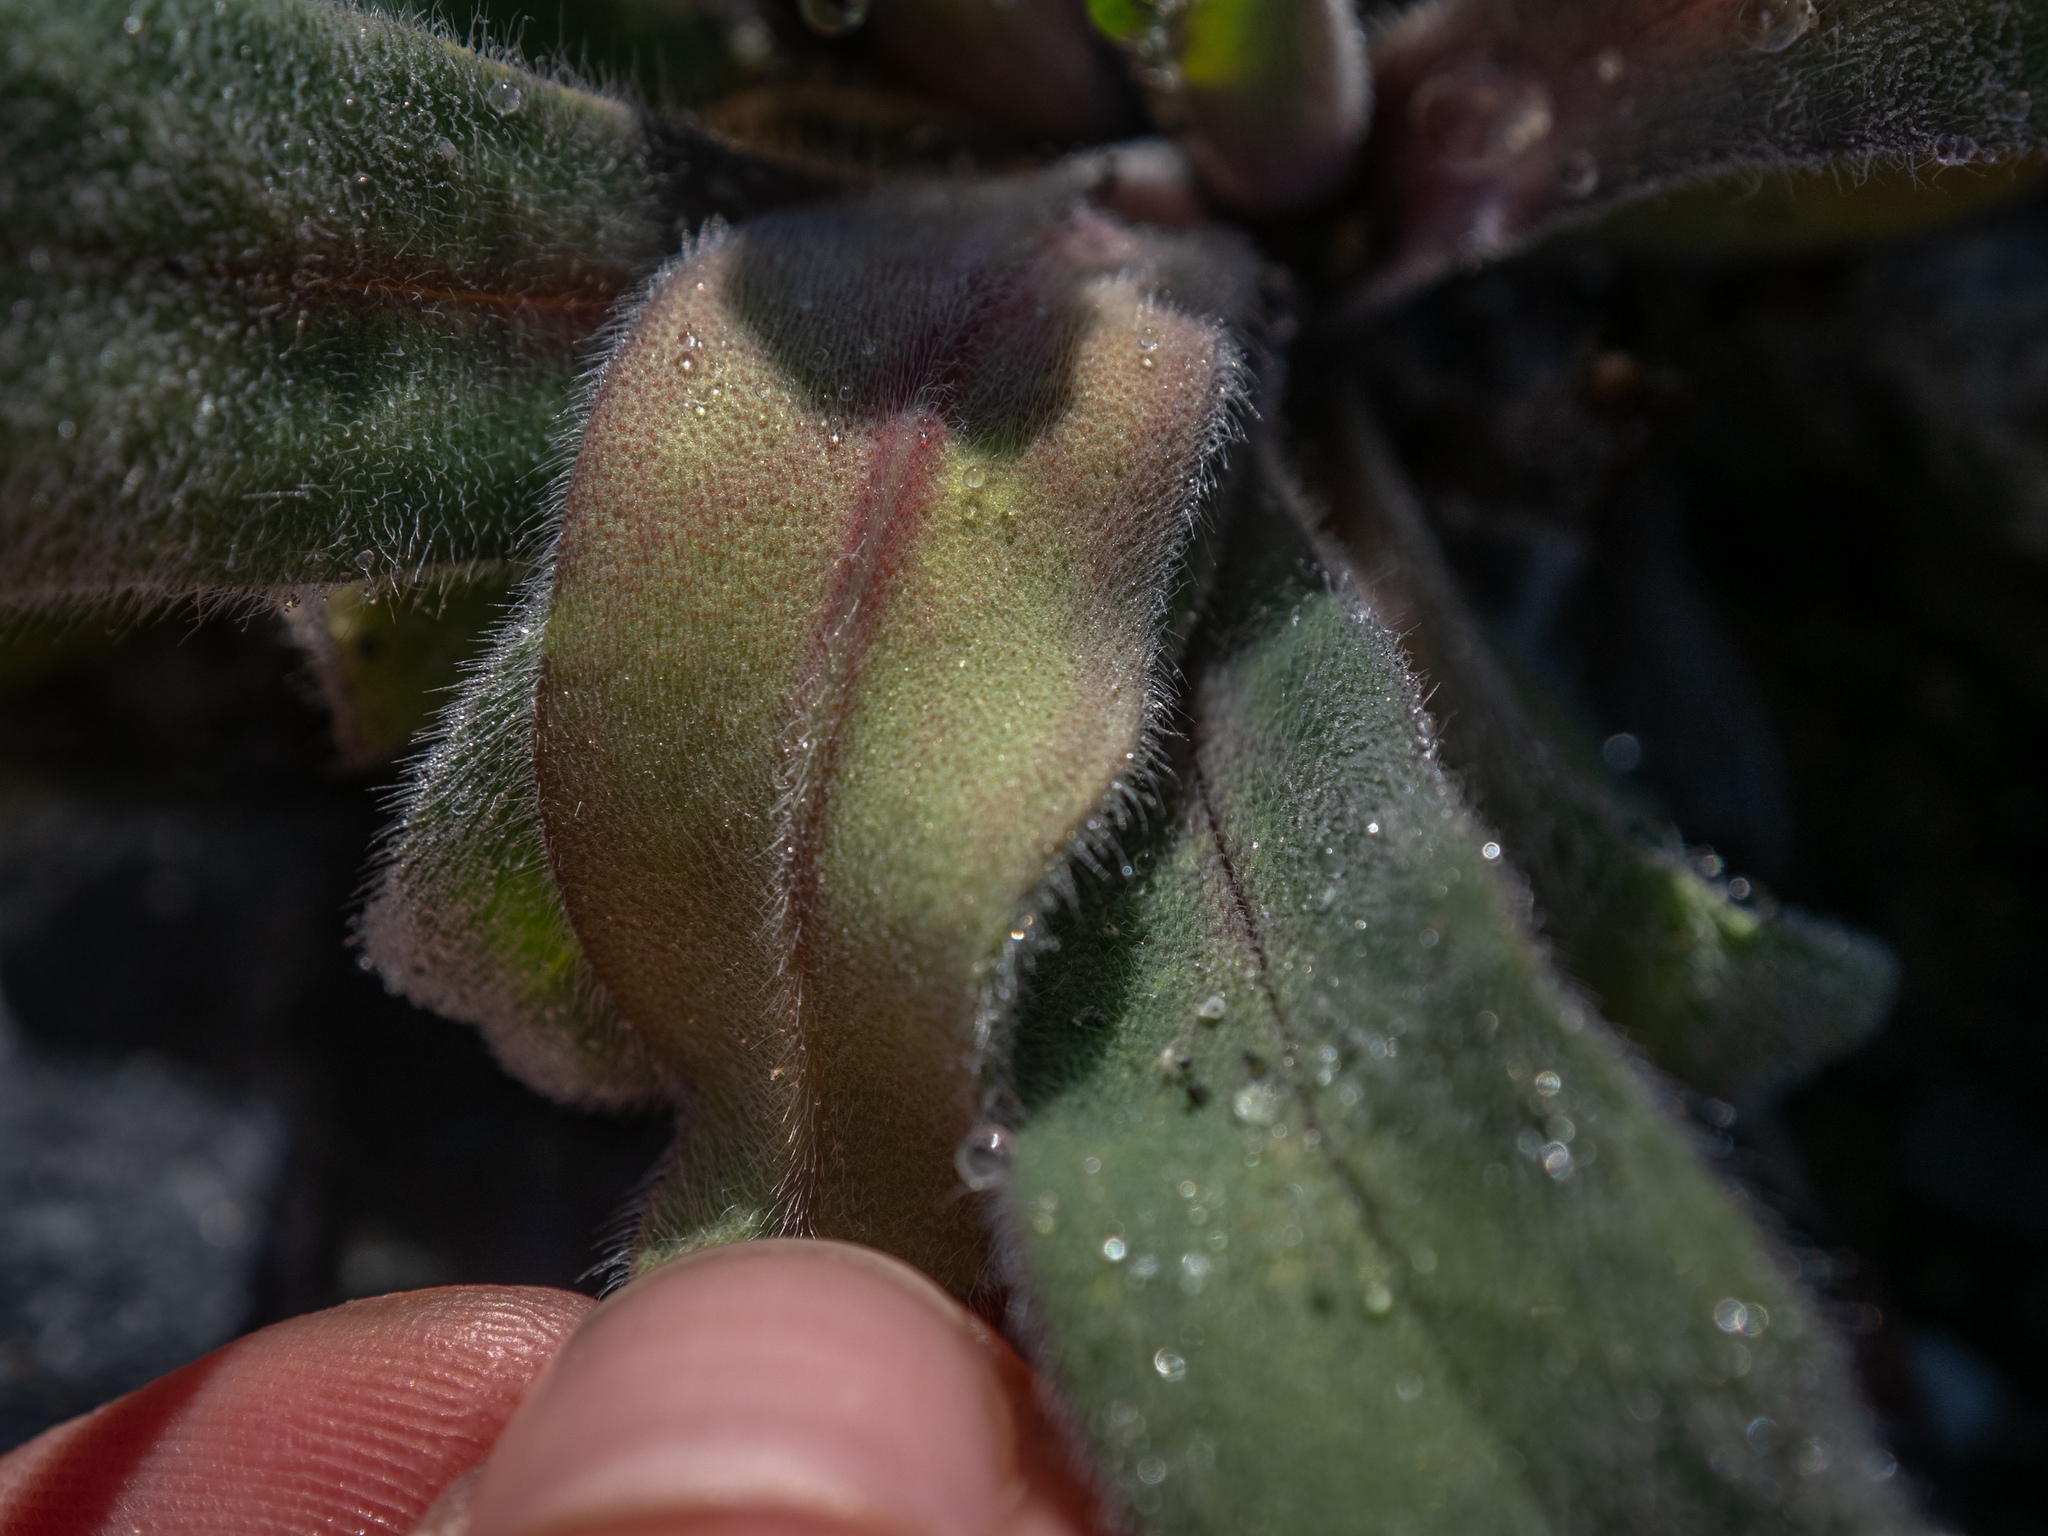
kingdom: Plantae
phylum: Tracheophyta
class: Magnoliopsida
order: Boraginales
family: Boraginaceae
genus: Myosotis
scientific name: Myosotis macrantha
